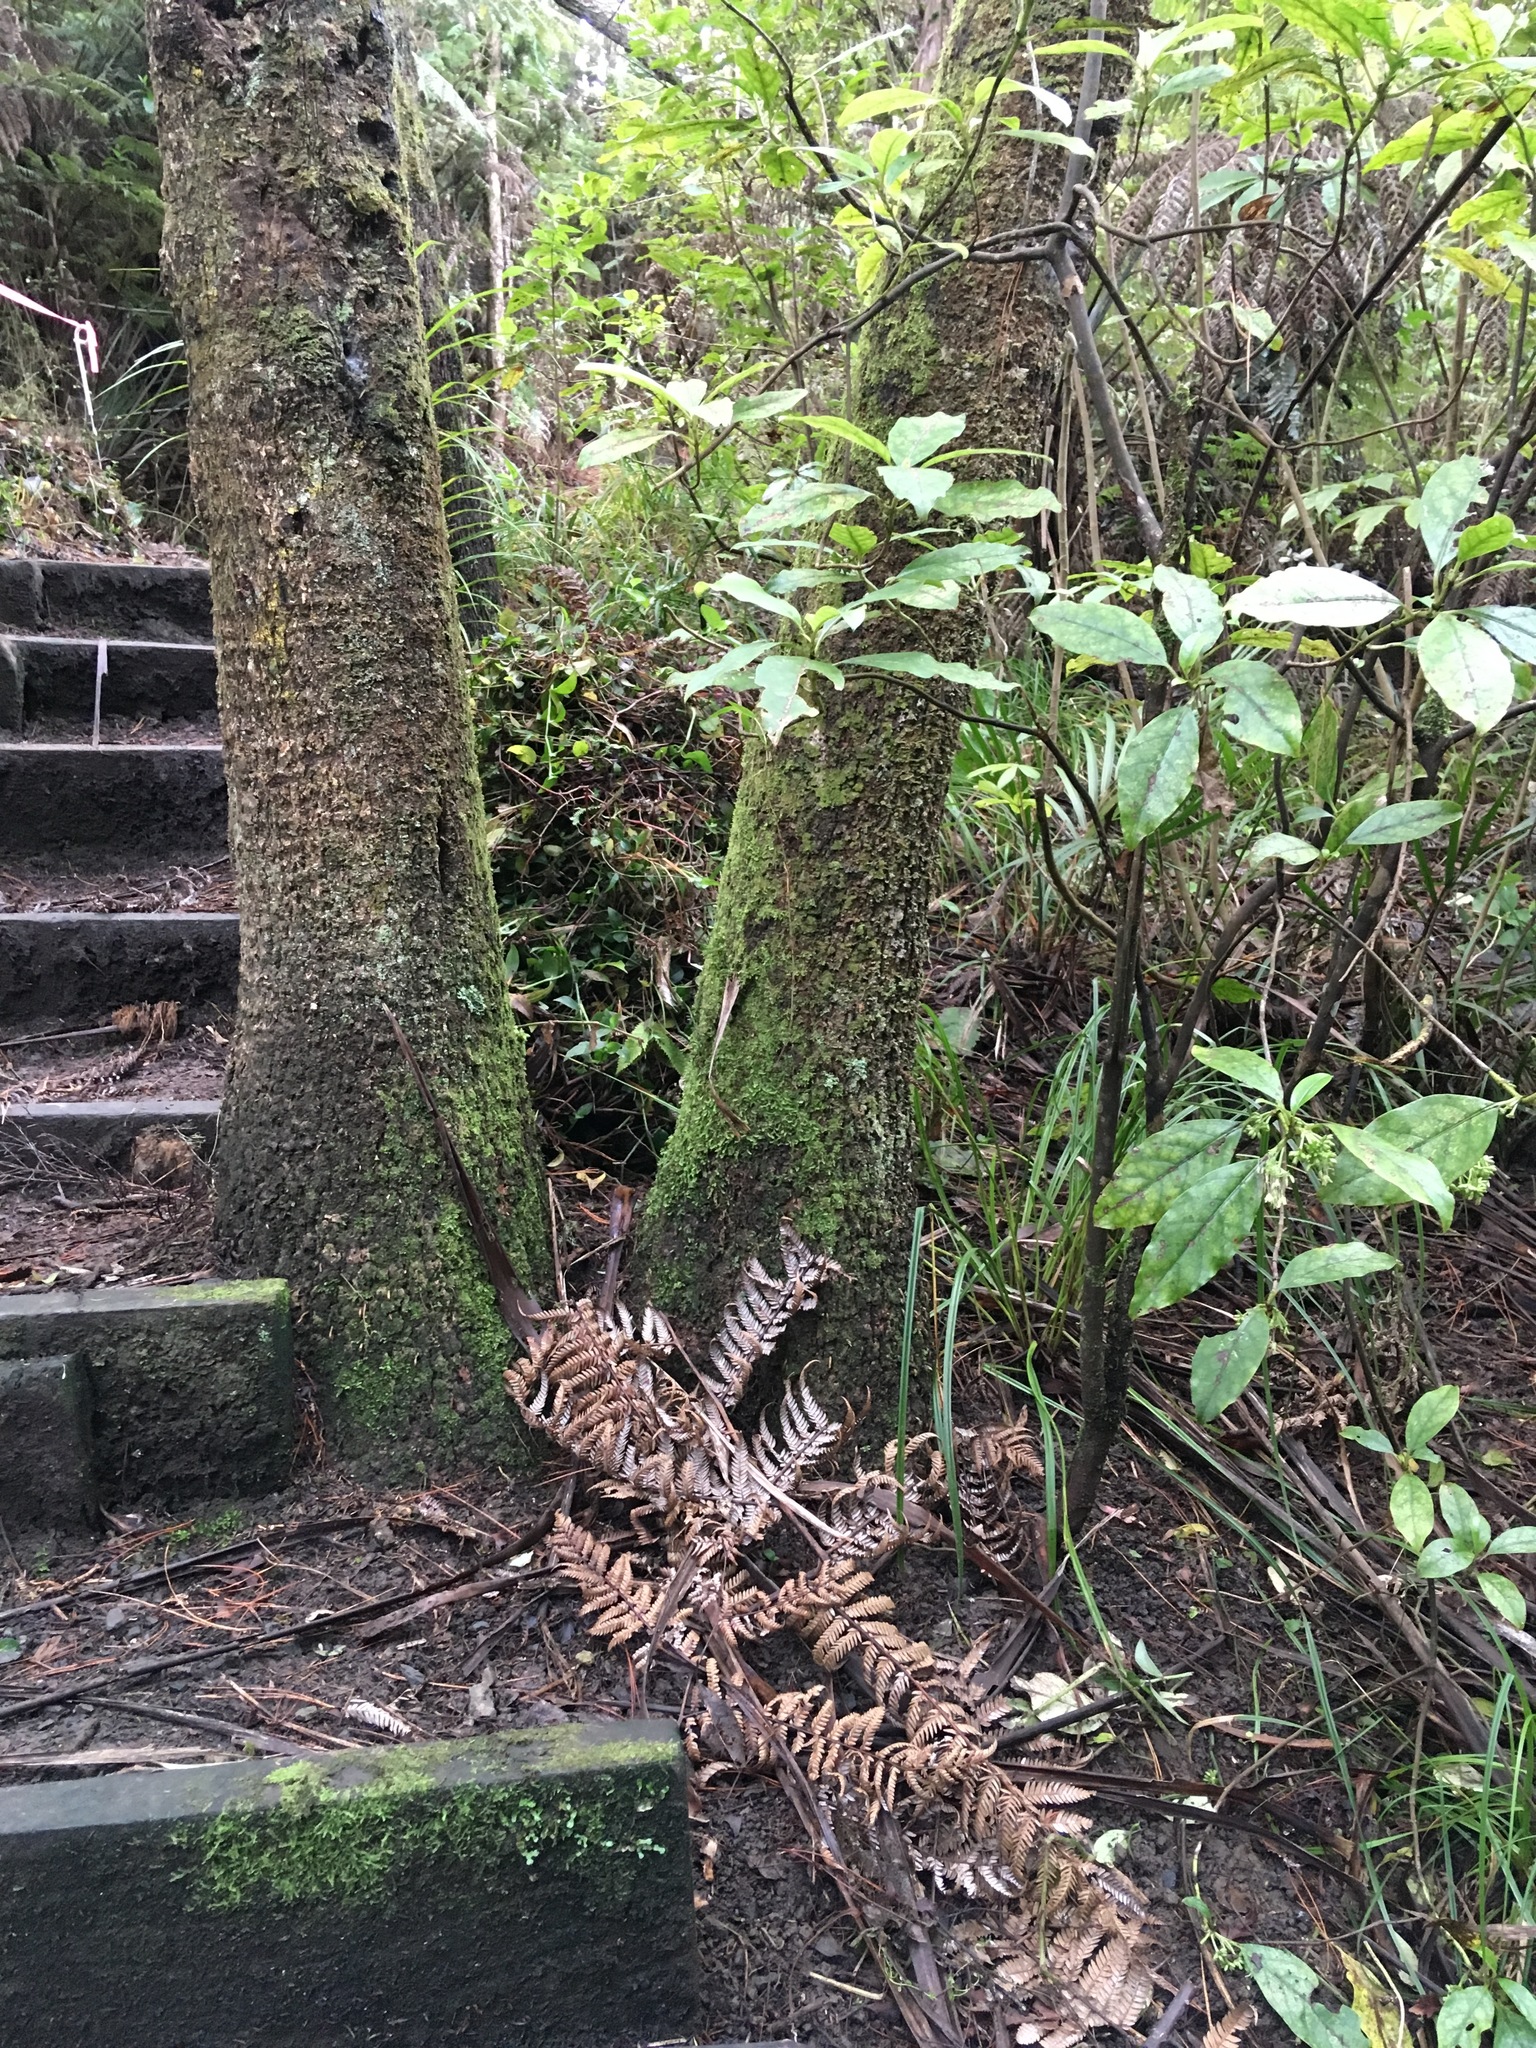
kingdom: Plantae
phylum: Tracheophyta
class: Magnoliopsida
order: Gentianales
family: Rubiaceae
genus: Coprosma
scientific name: Coprosma autumnalis
